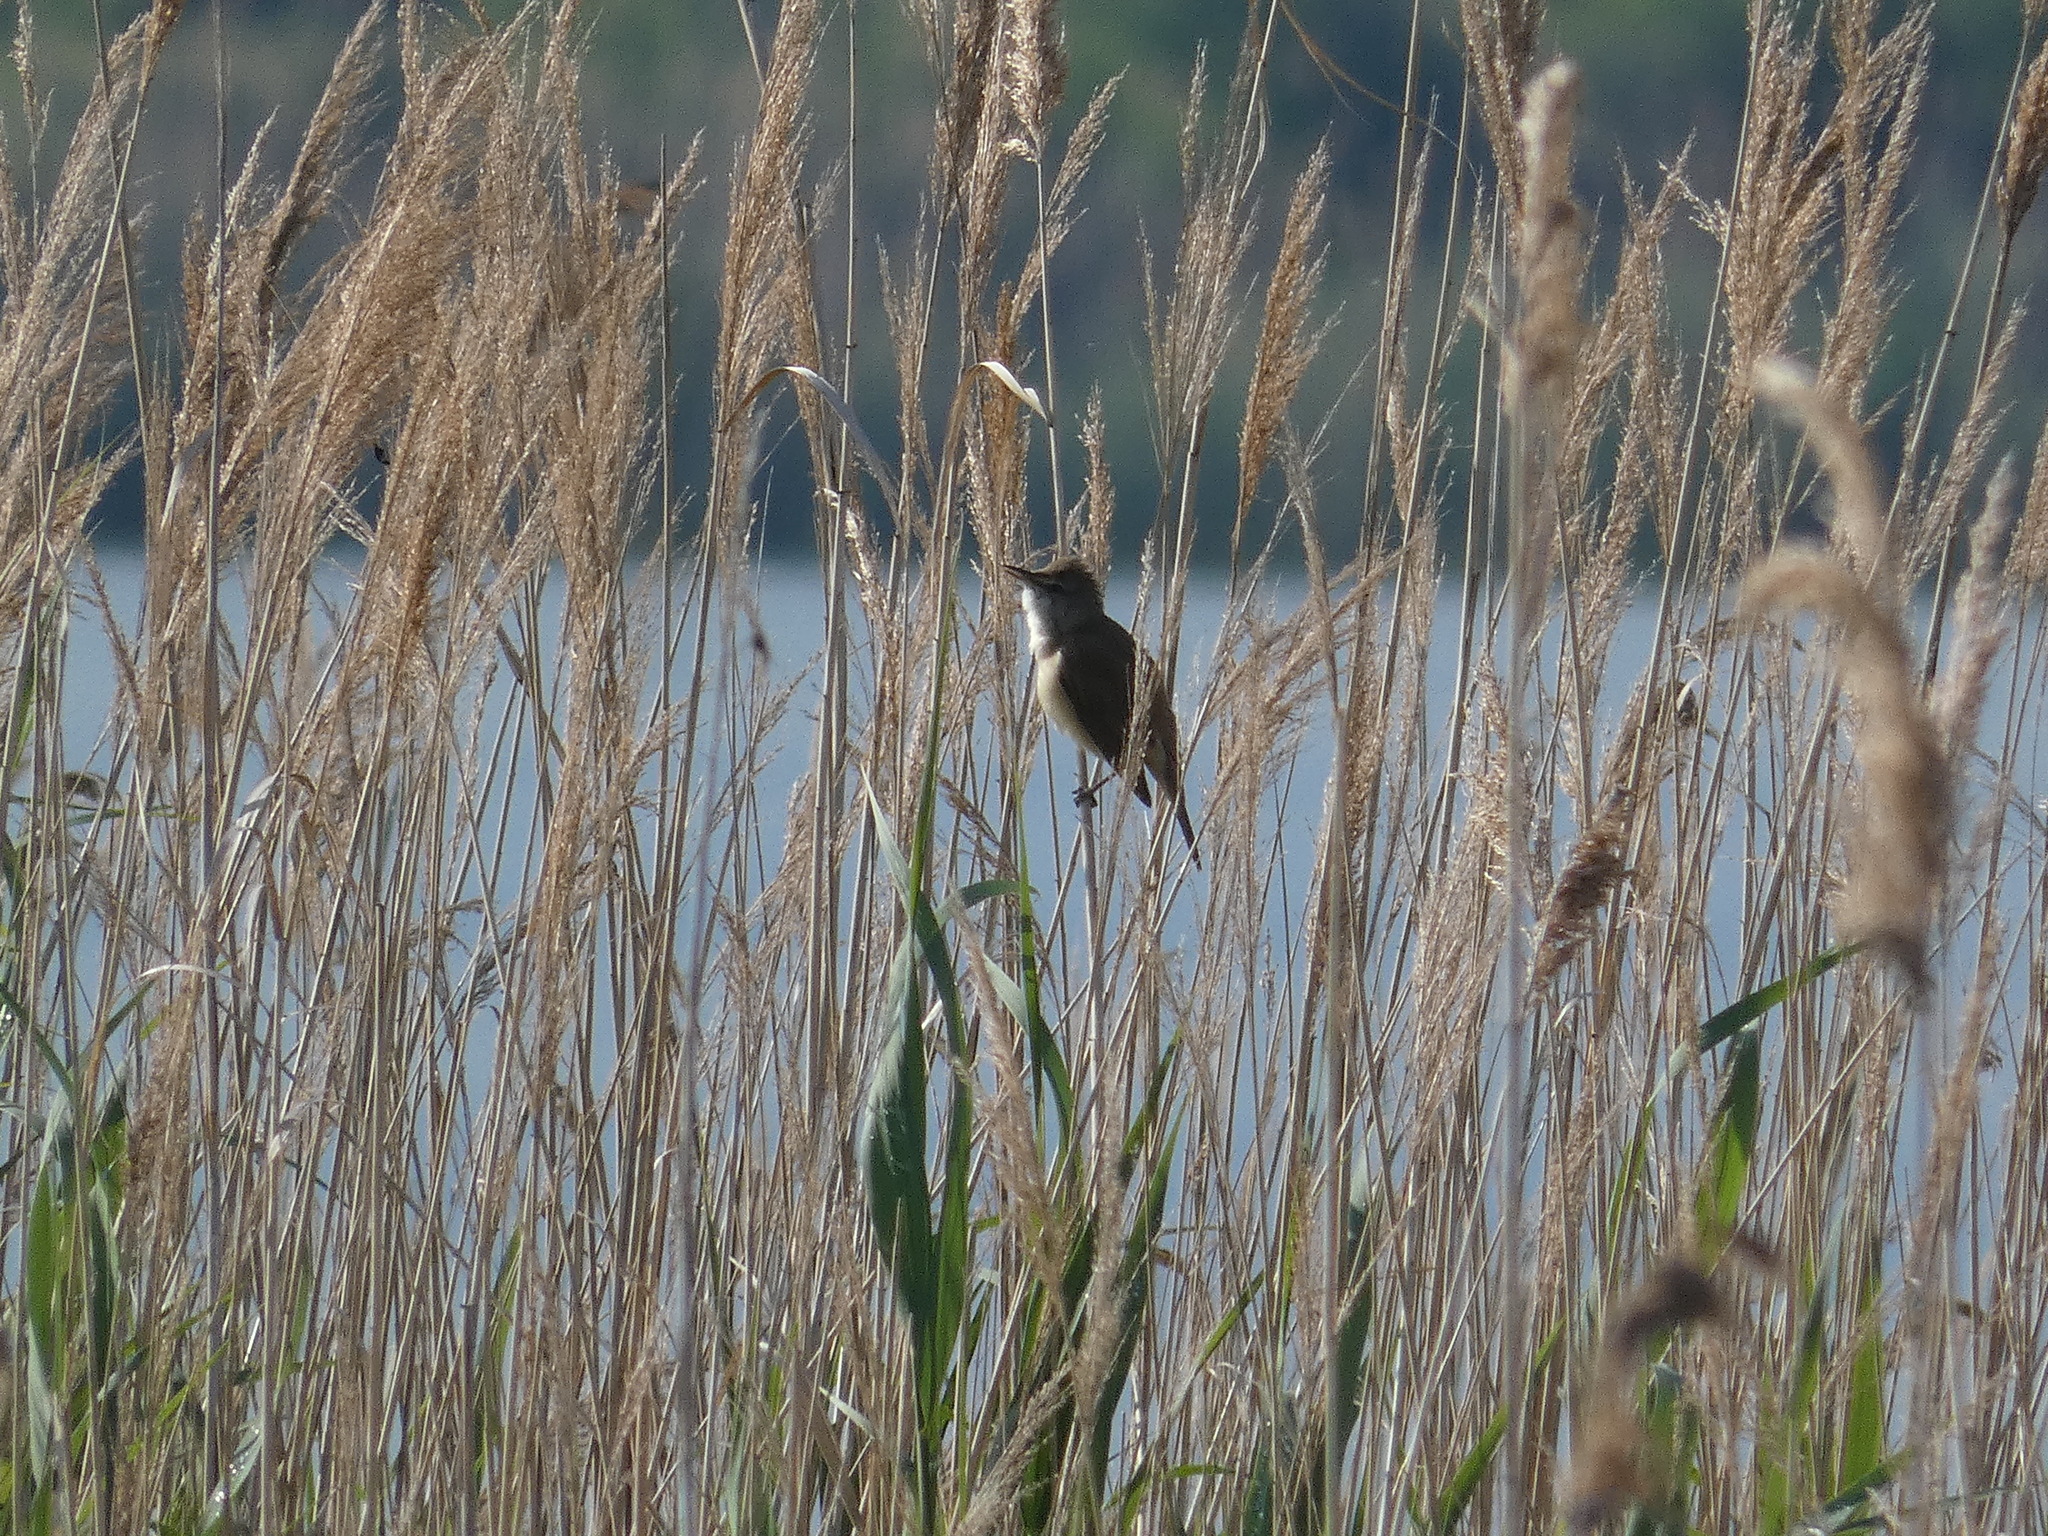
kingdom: Animalia
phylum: Chordata
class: Aves
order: Passeriformes
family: Acrocephalidae
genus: Acrocephalus
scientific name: Acrocephalus arundinaceus
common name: Great reed warbler
